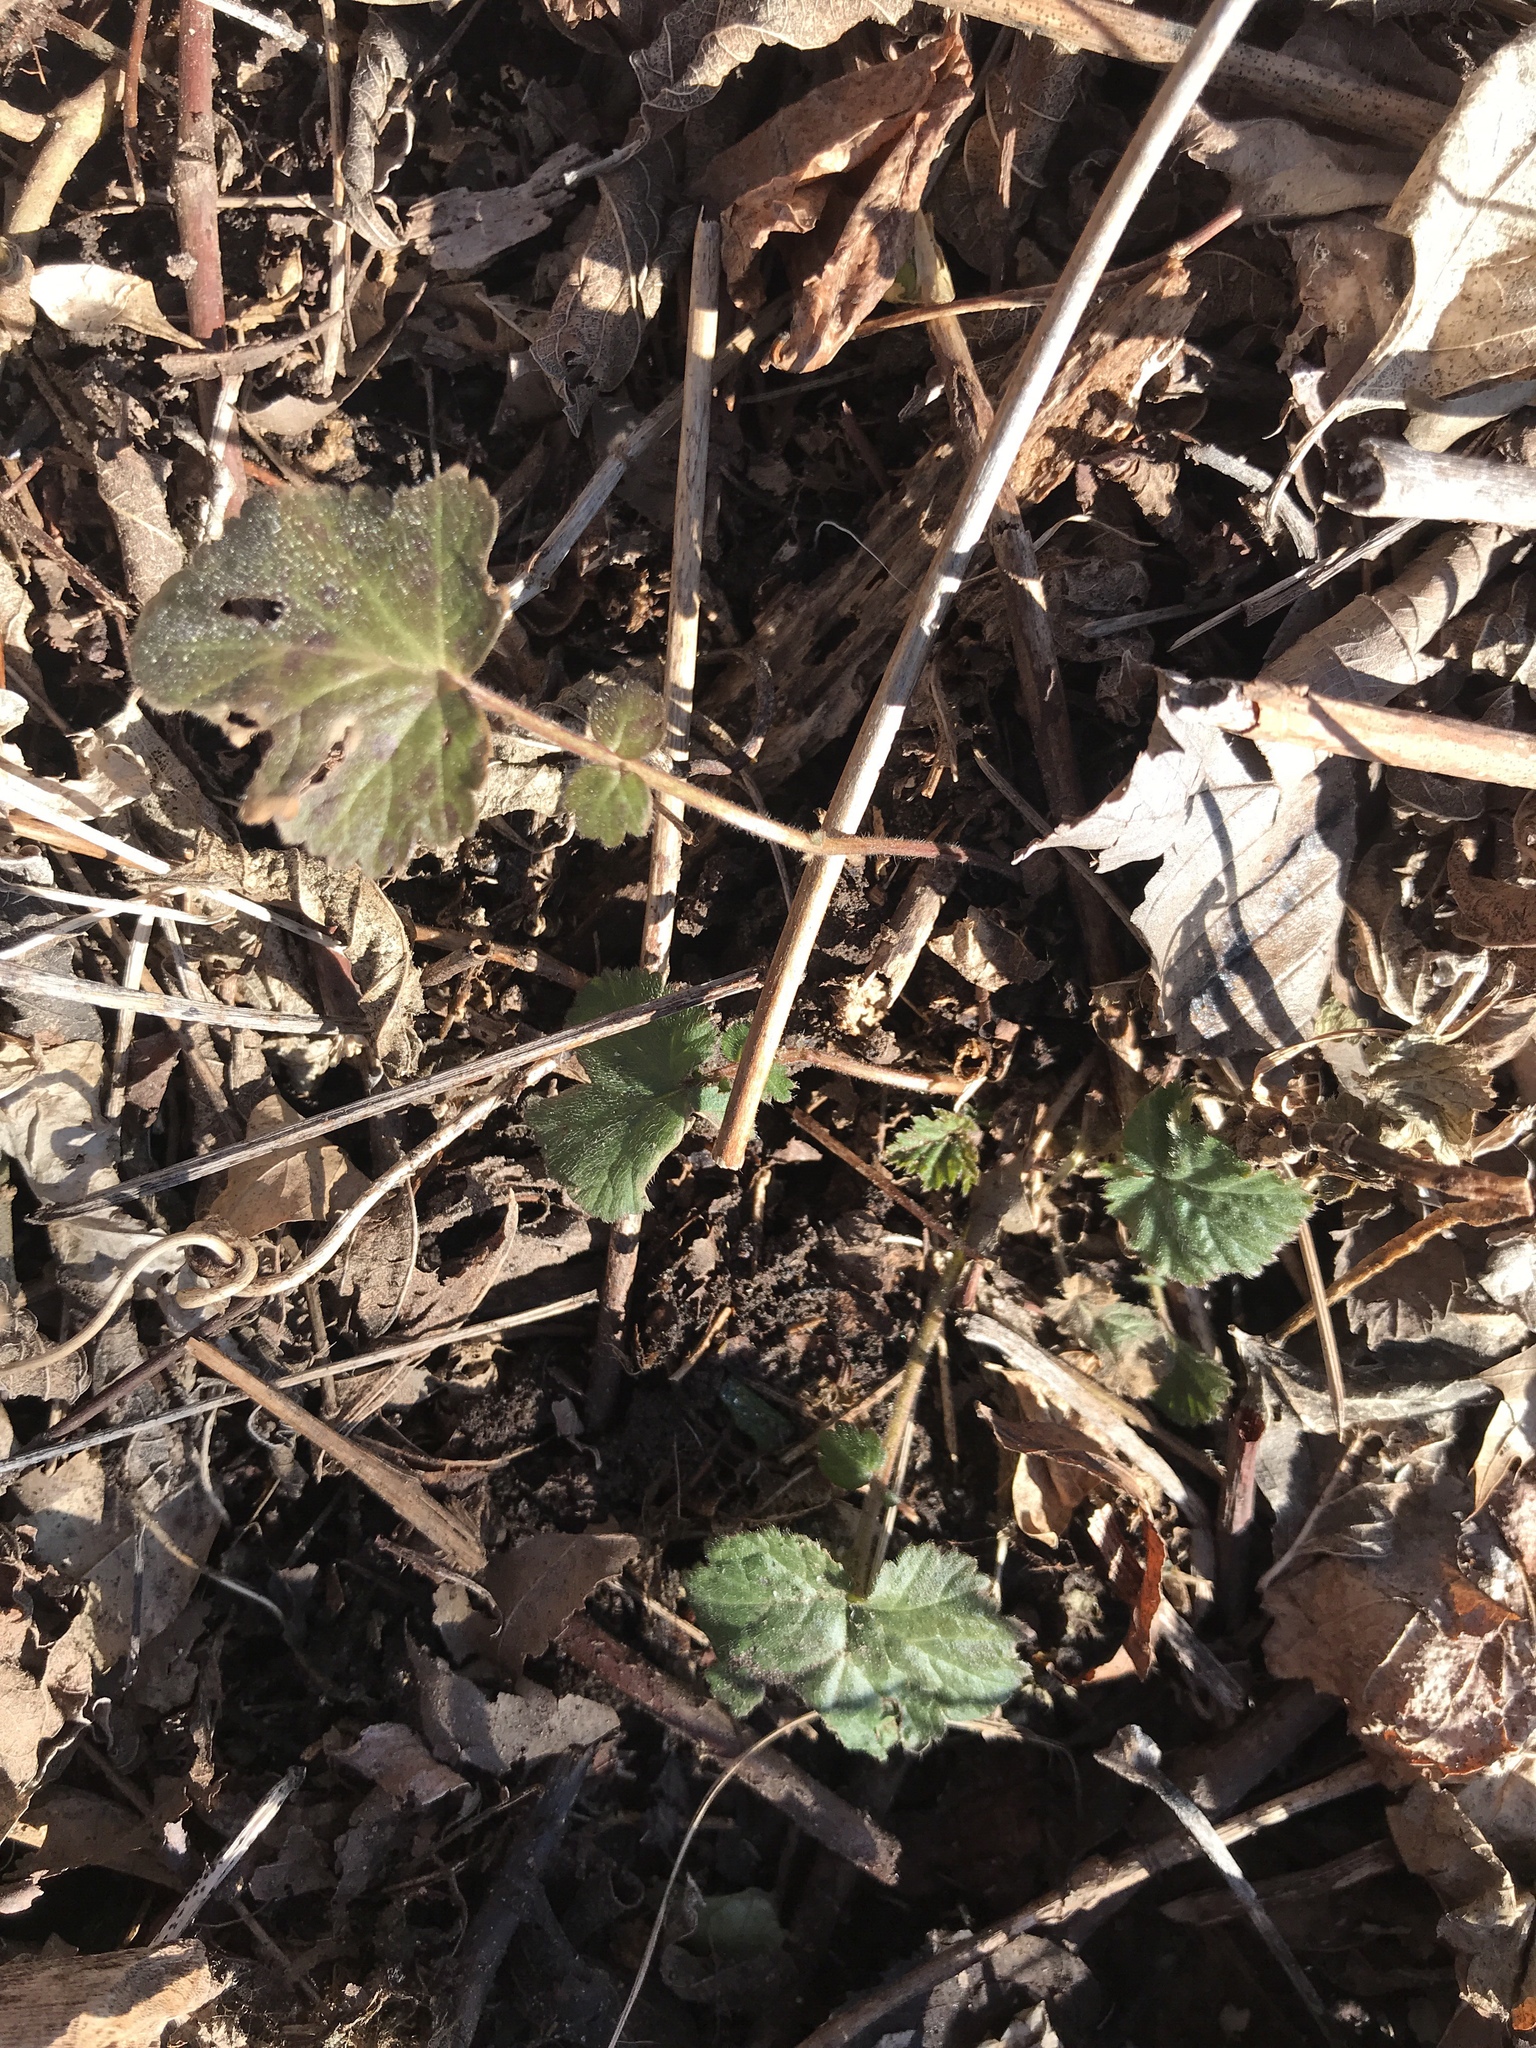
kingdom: Plantae
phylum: Tracheophyta
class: Magnoliopsida
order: Rosales
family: Rosaceae
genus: Geum
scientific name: Geum canadense
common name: White avens
